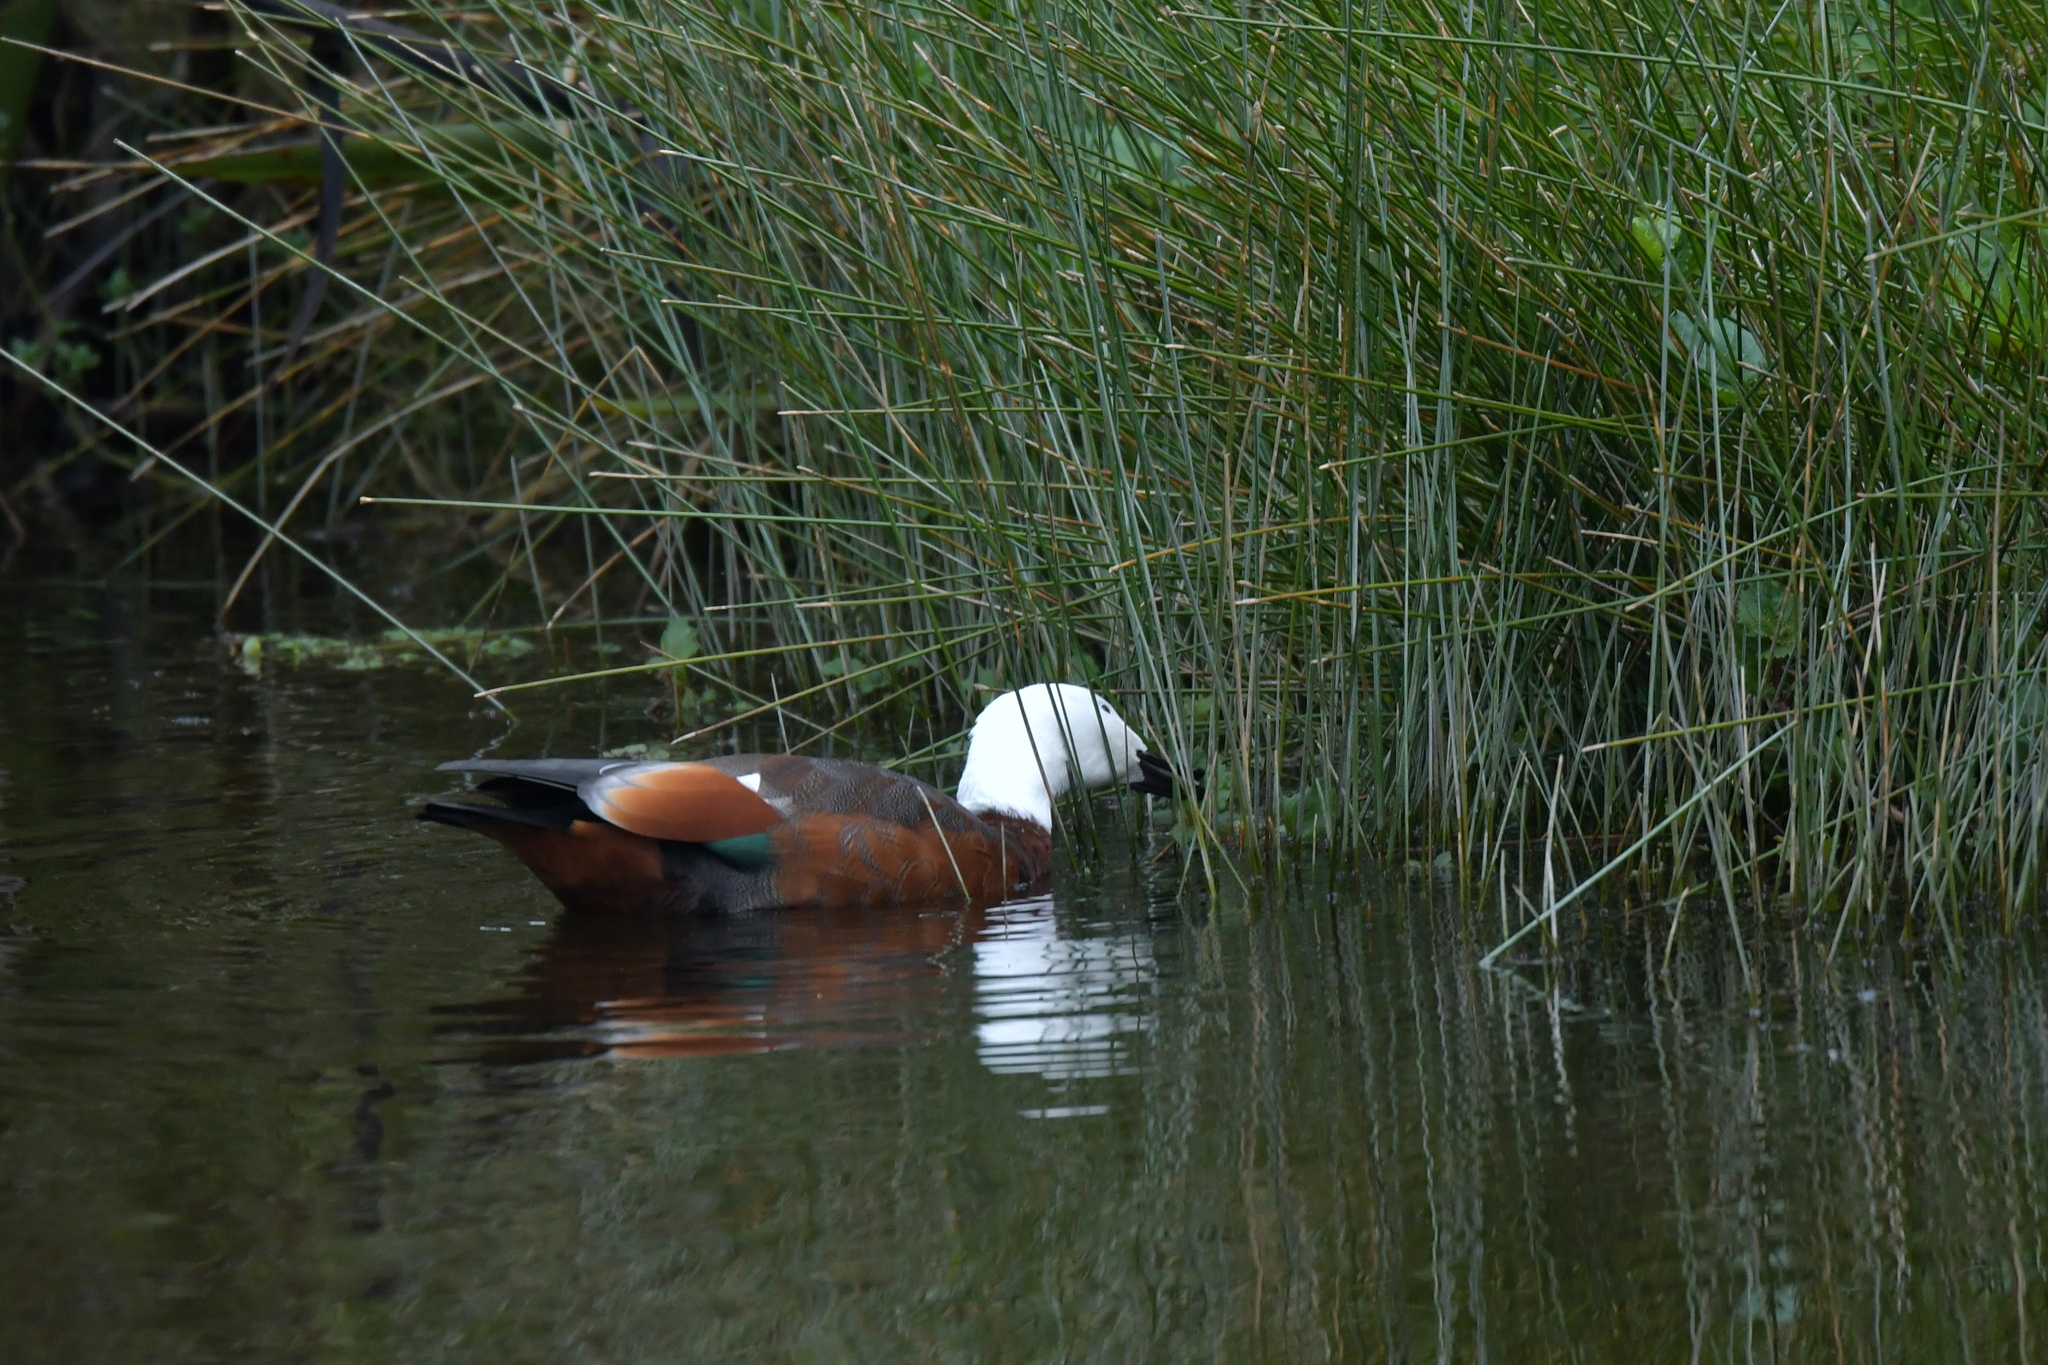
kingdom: Animalia
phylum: Chordata
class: Aves
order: Anseriformes
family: Anatidae
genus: Tadorna
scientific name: Tadorna variegata
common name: Paradise shelduck
